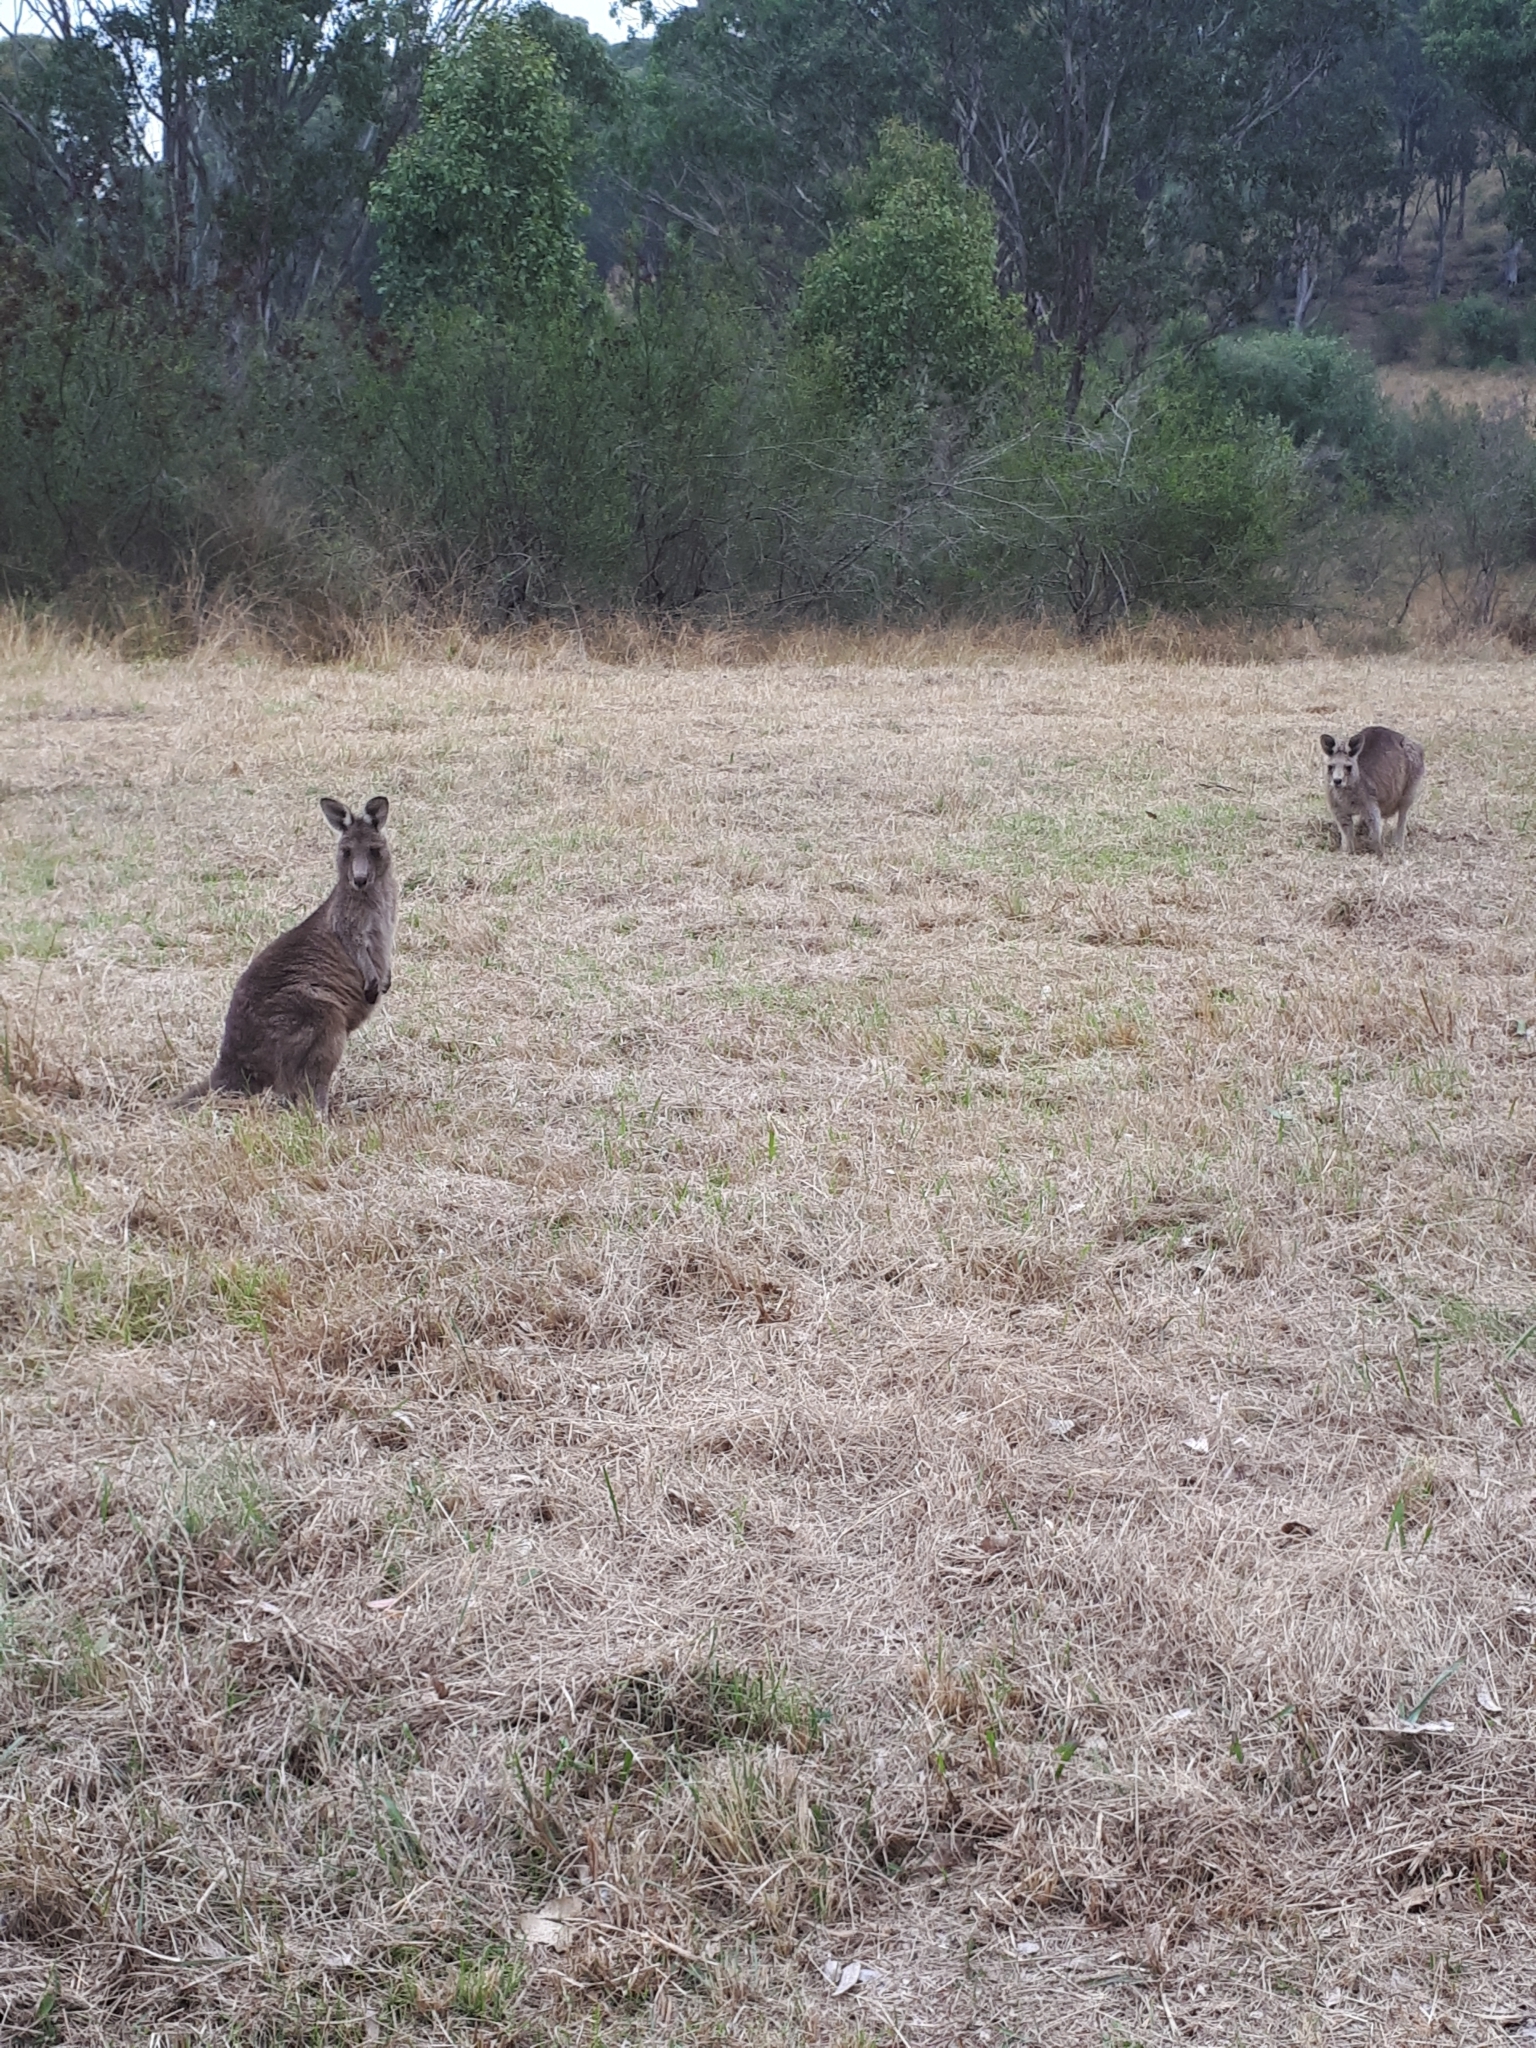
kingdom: Animalia
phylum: Chordata
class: Mammalia
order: Diprotodontia
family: Macropodidae
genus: Macropus
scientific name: Macropus giganteus
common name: Eastern grey kangaroo
